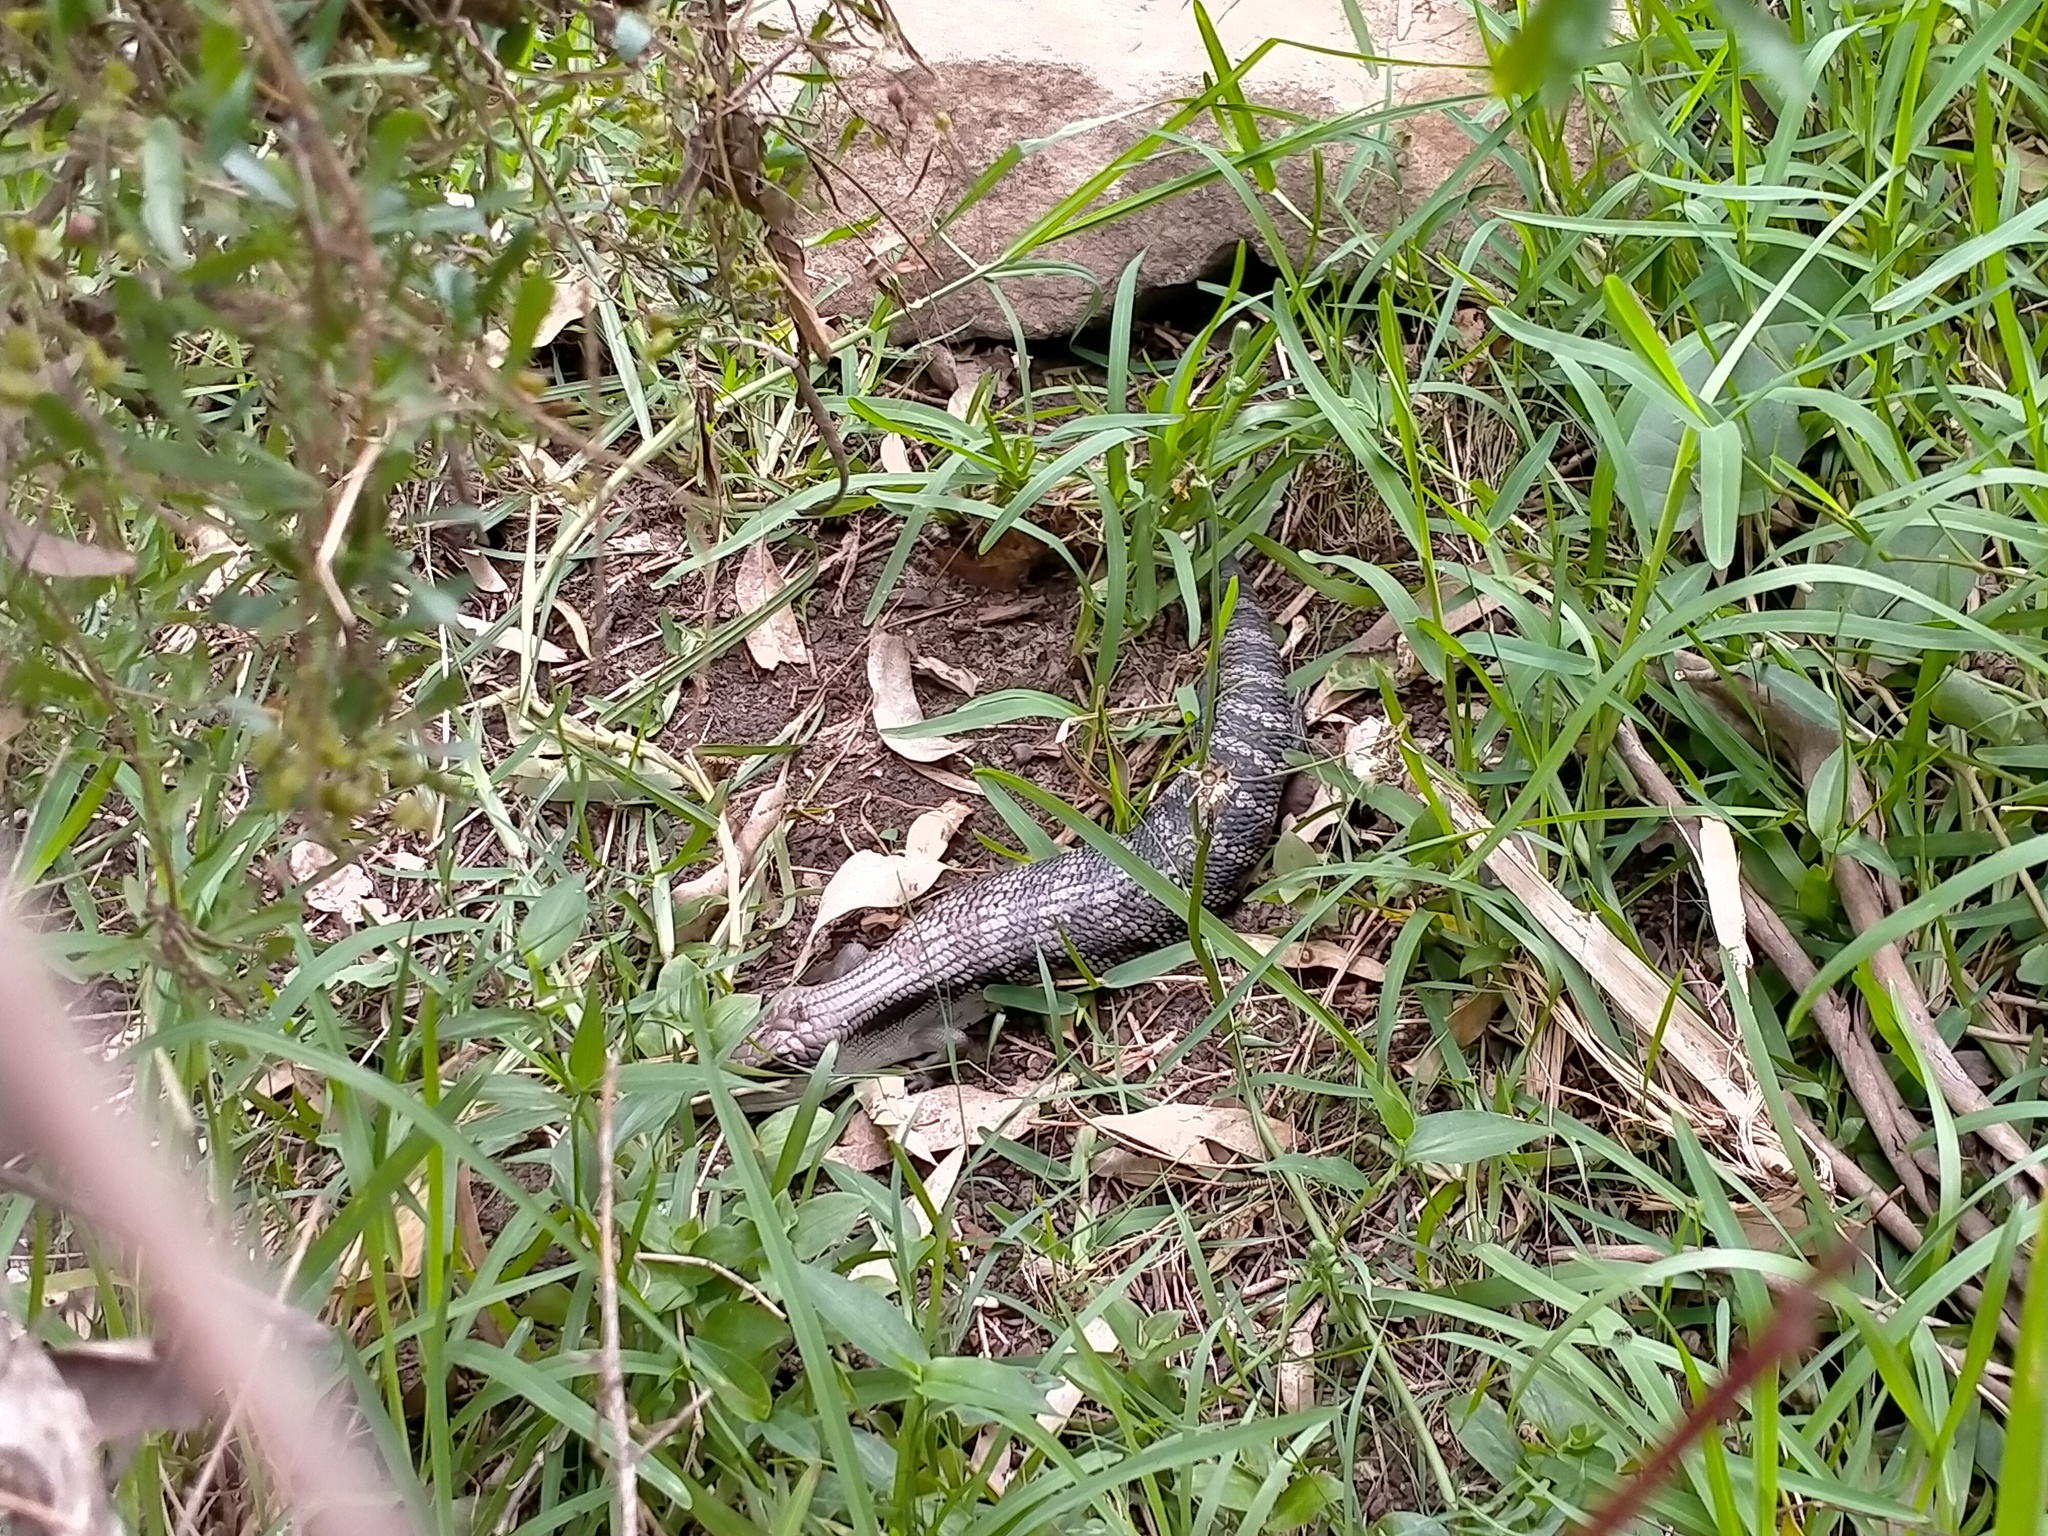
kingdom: Animalia
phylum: Chordata
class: Squamata
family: Scincidae
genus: Tiliqua
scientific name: Tiliqua scincoides
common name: Common bluetongue
